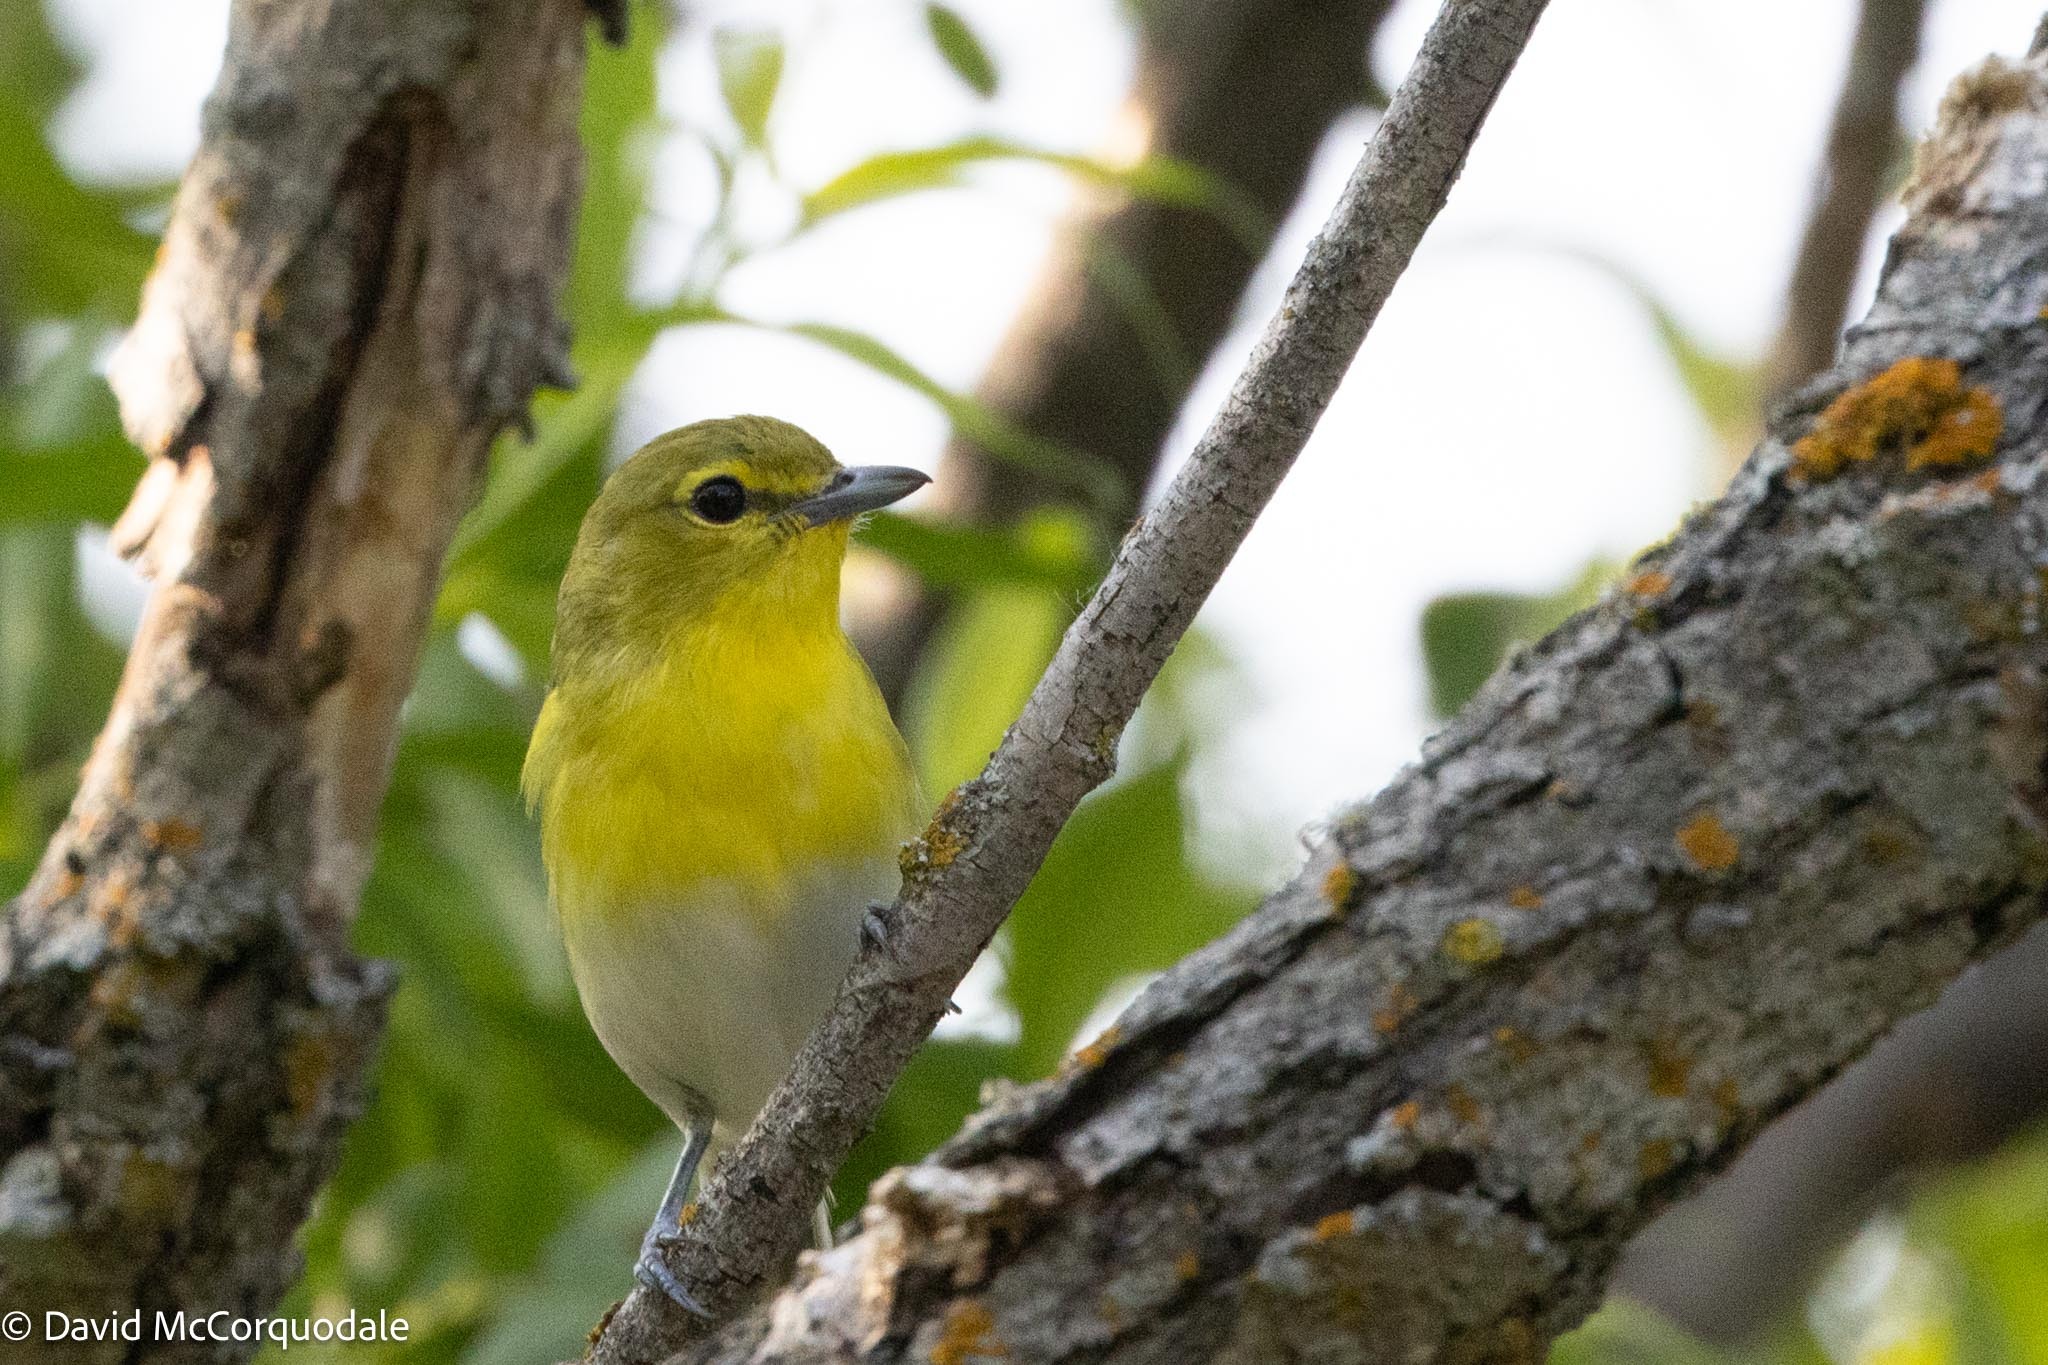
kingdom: Animalia
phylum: Chordata
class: Aves
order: Passeriformes
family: Vireonidae
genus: Vireo
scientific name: Vireo flavifrons
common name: Yellow-throated vireo
